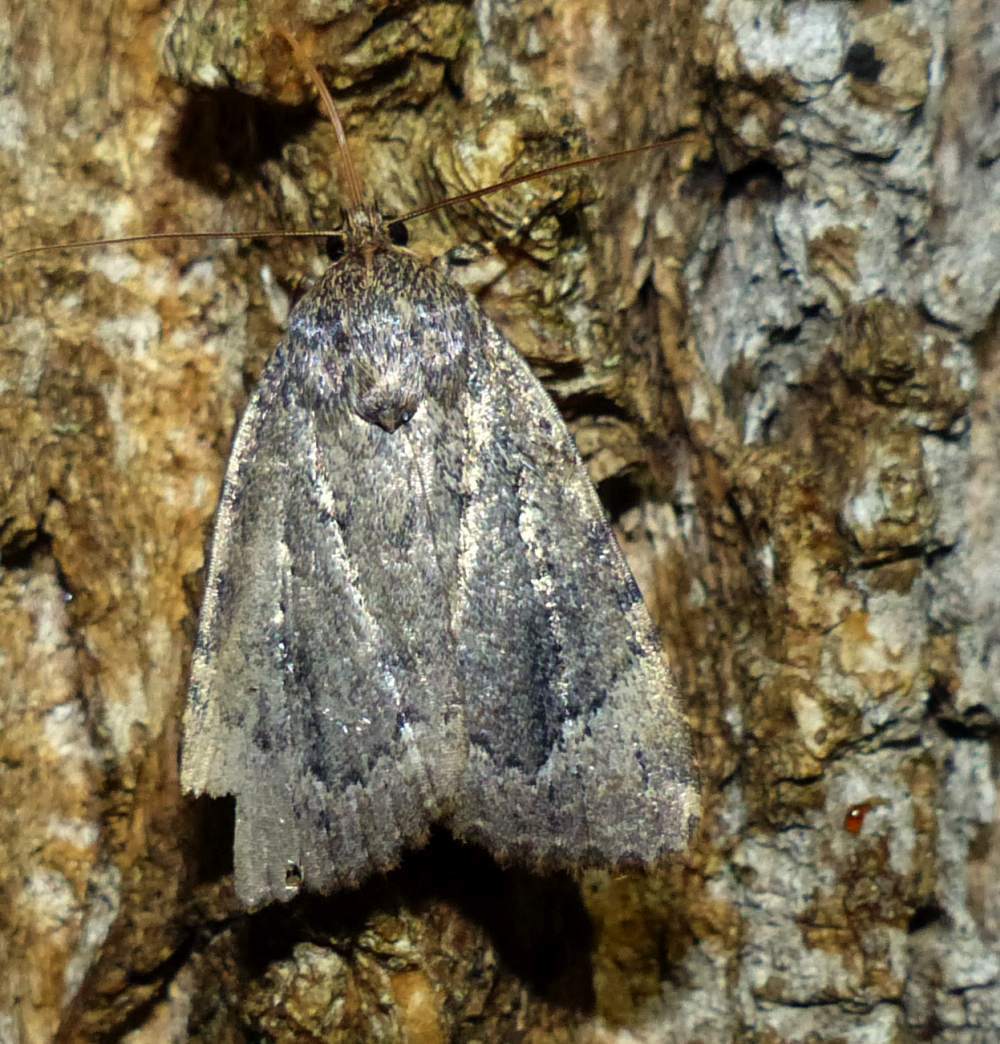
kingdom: Animalia
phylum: Arthropoda
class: Insecta
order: Lepidoptera
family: Noctuidae
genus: Amphipyra
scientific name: Amphipyra pyramidoides
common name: American copper underwing
